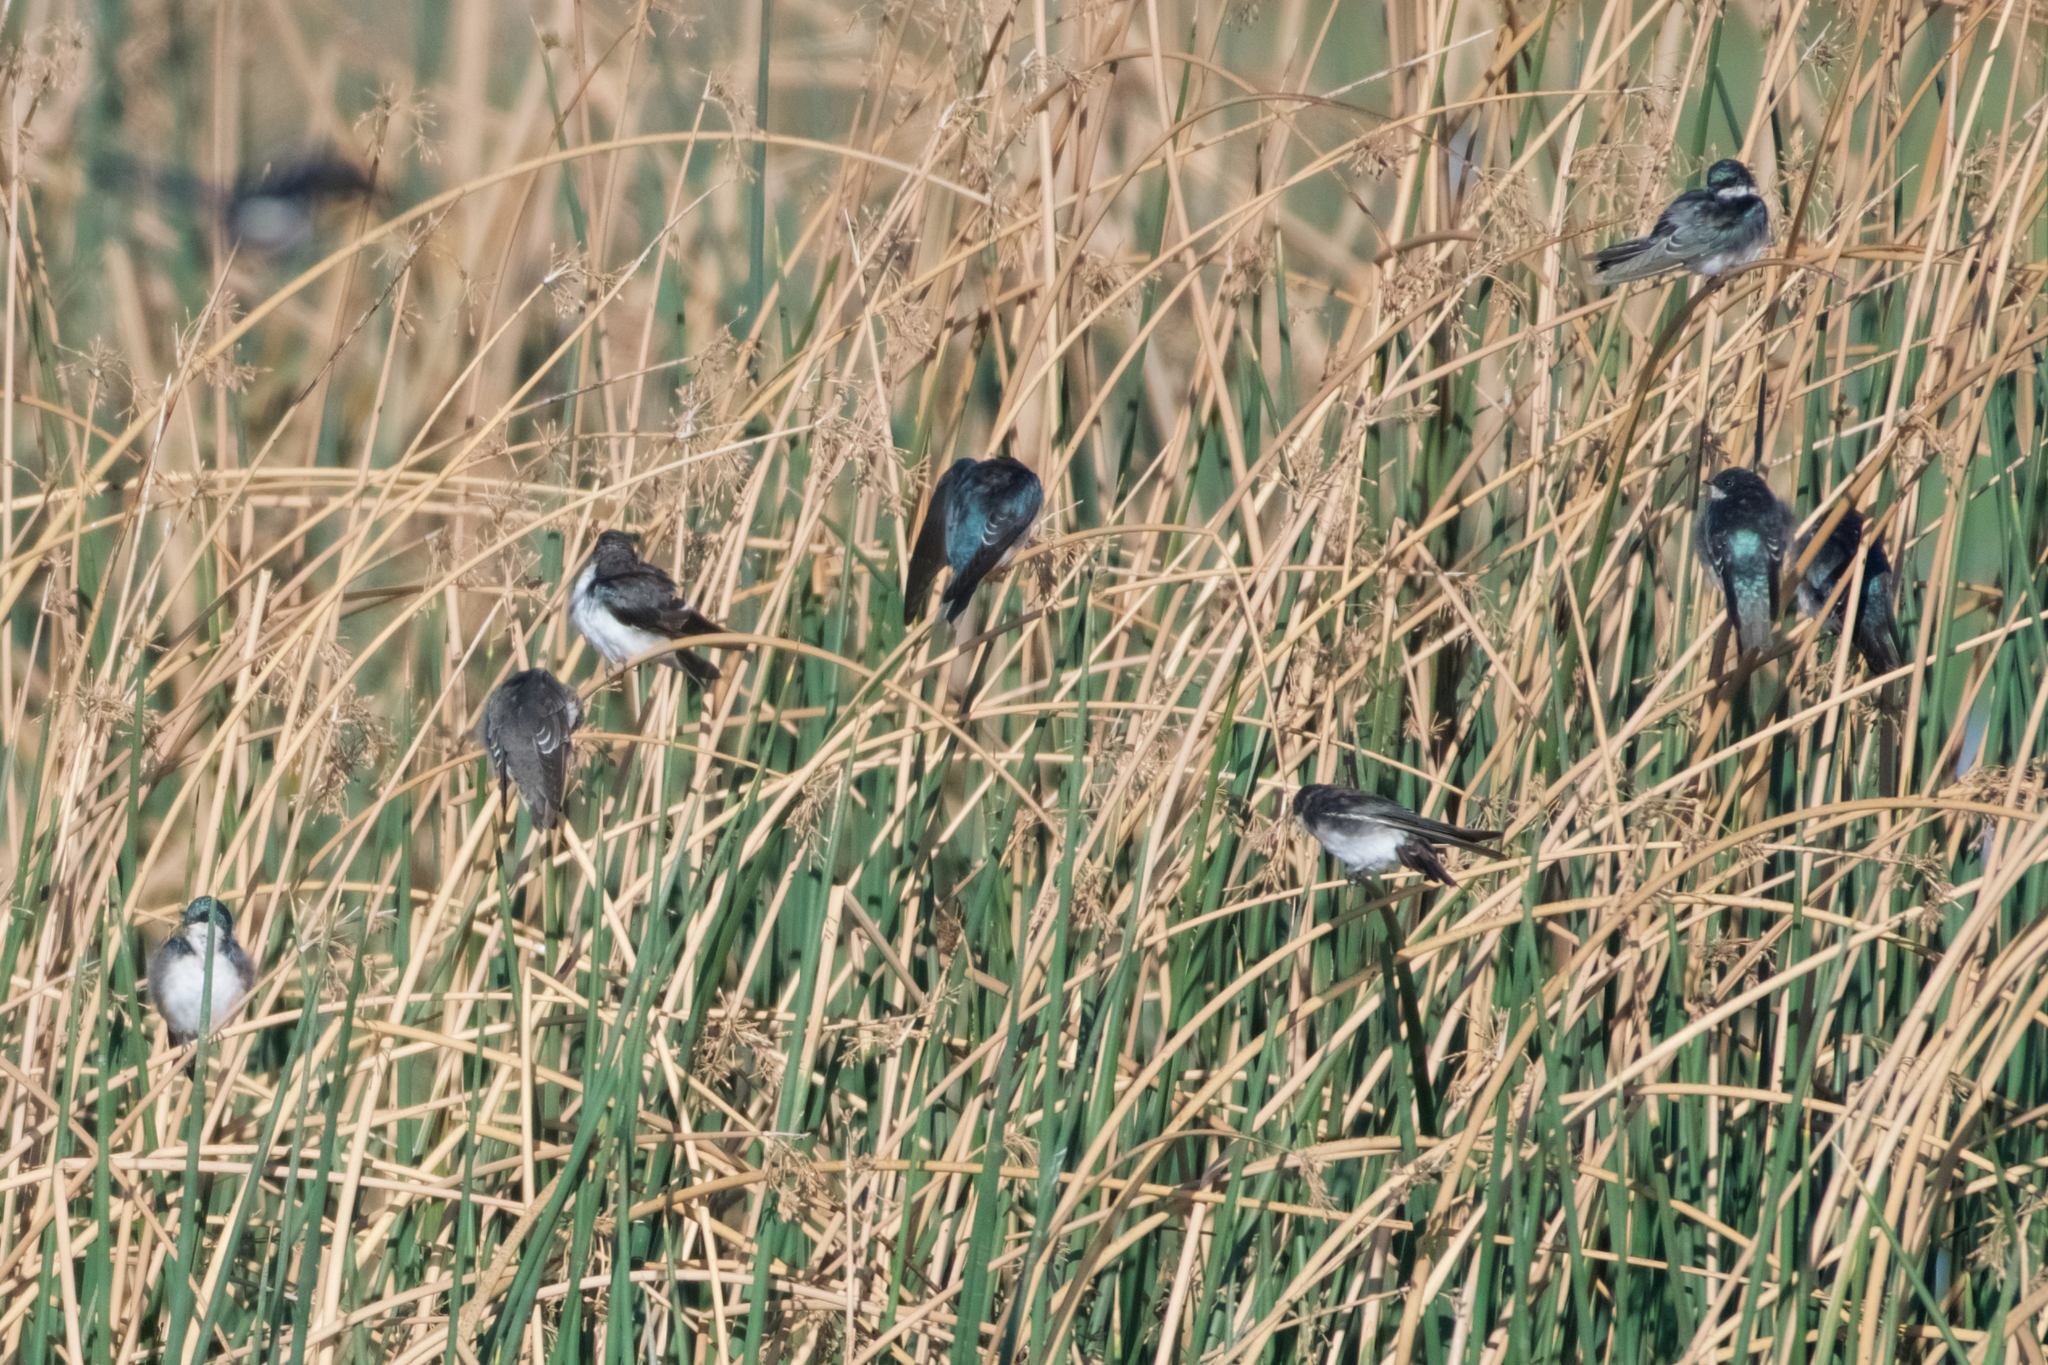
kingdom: Animalia
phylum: Chordata
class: Aves
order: Passeriformes
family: Hirundinidae
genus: Tachycineta
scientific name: Tachycineta bicolor
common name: Tree swallow
